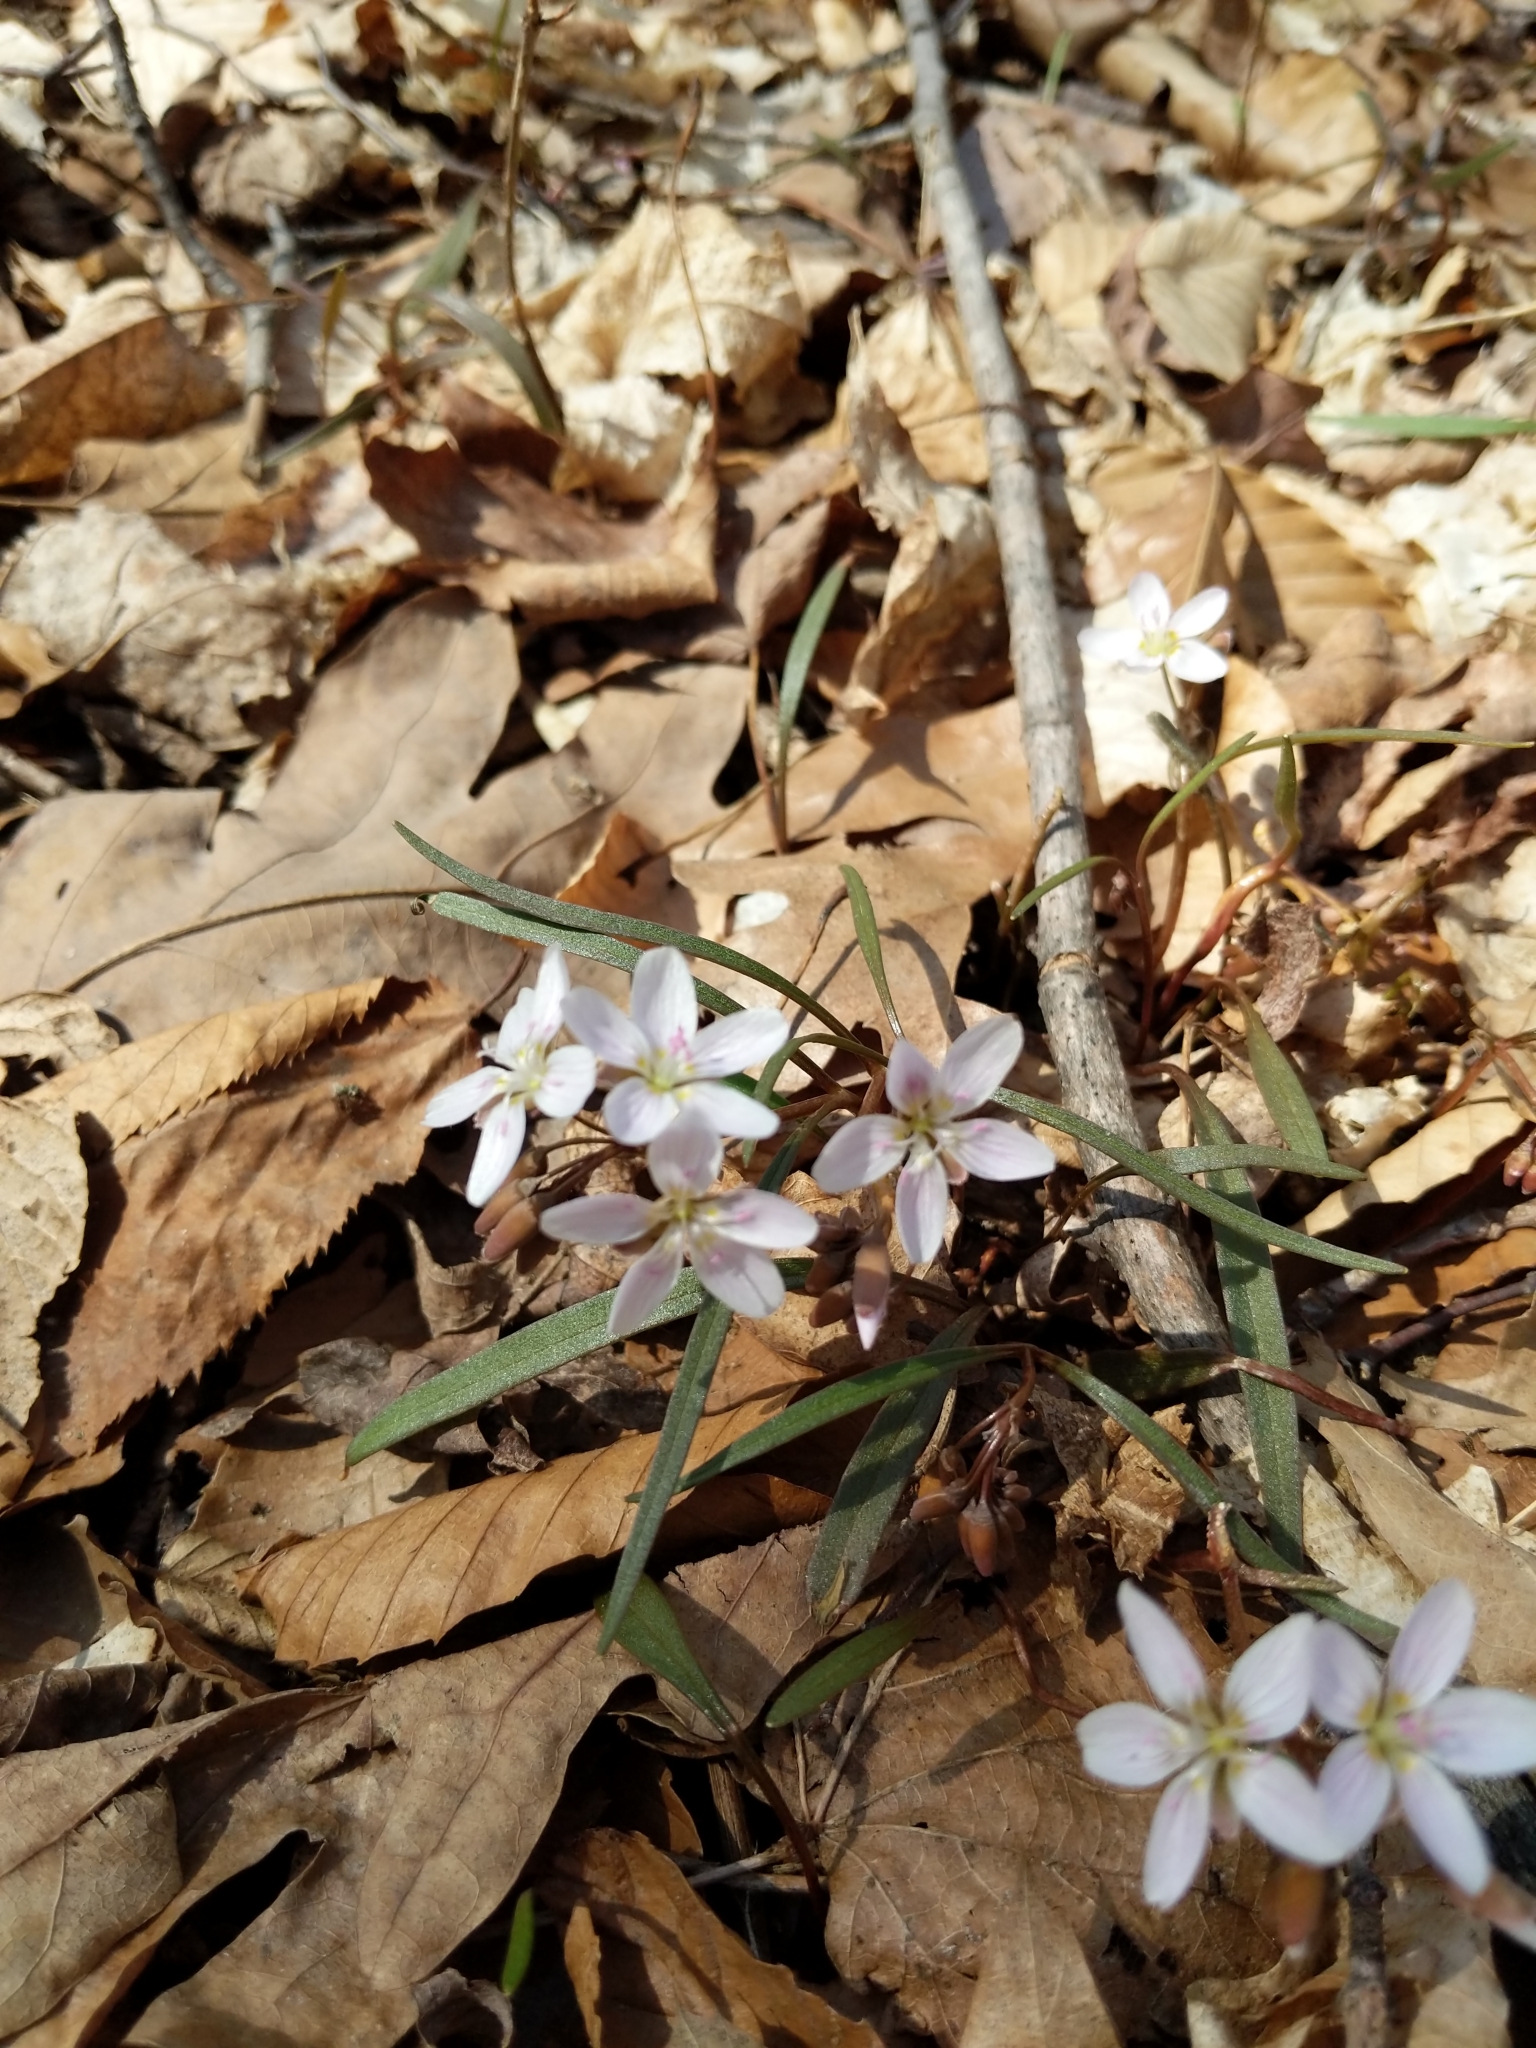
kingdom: Plantae
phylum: Tracheophyta
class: Magnoliopsida
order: Caryophyllales
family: Montiaceae
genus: Claytonia
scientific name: Claytonia virginica
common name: Virginia springbeauty
